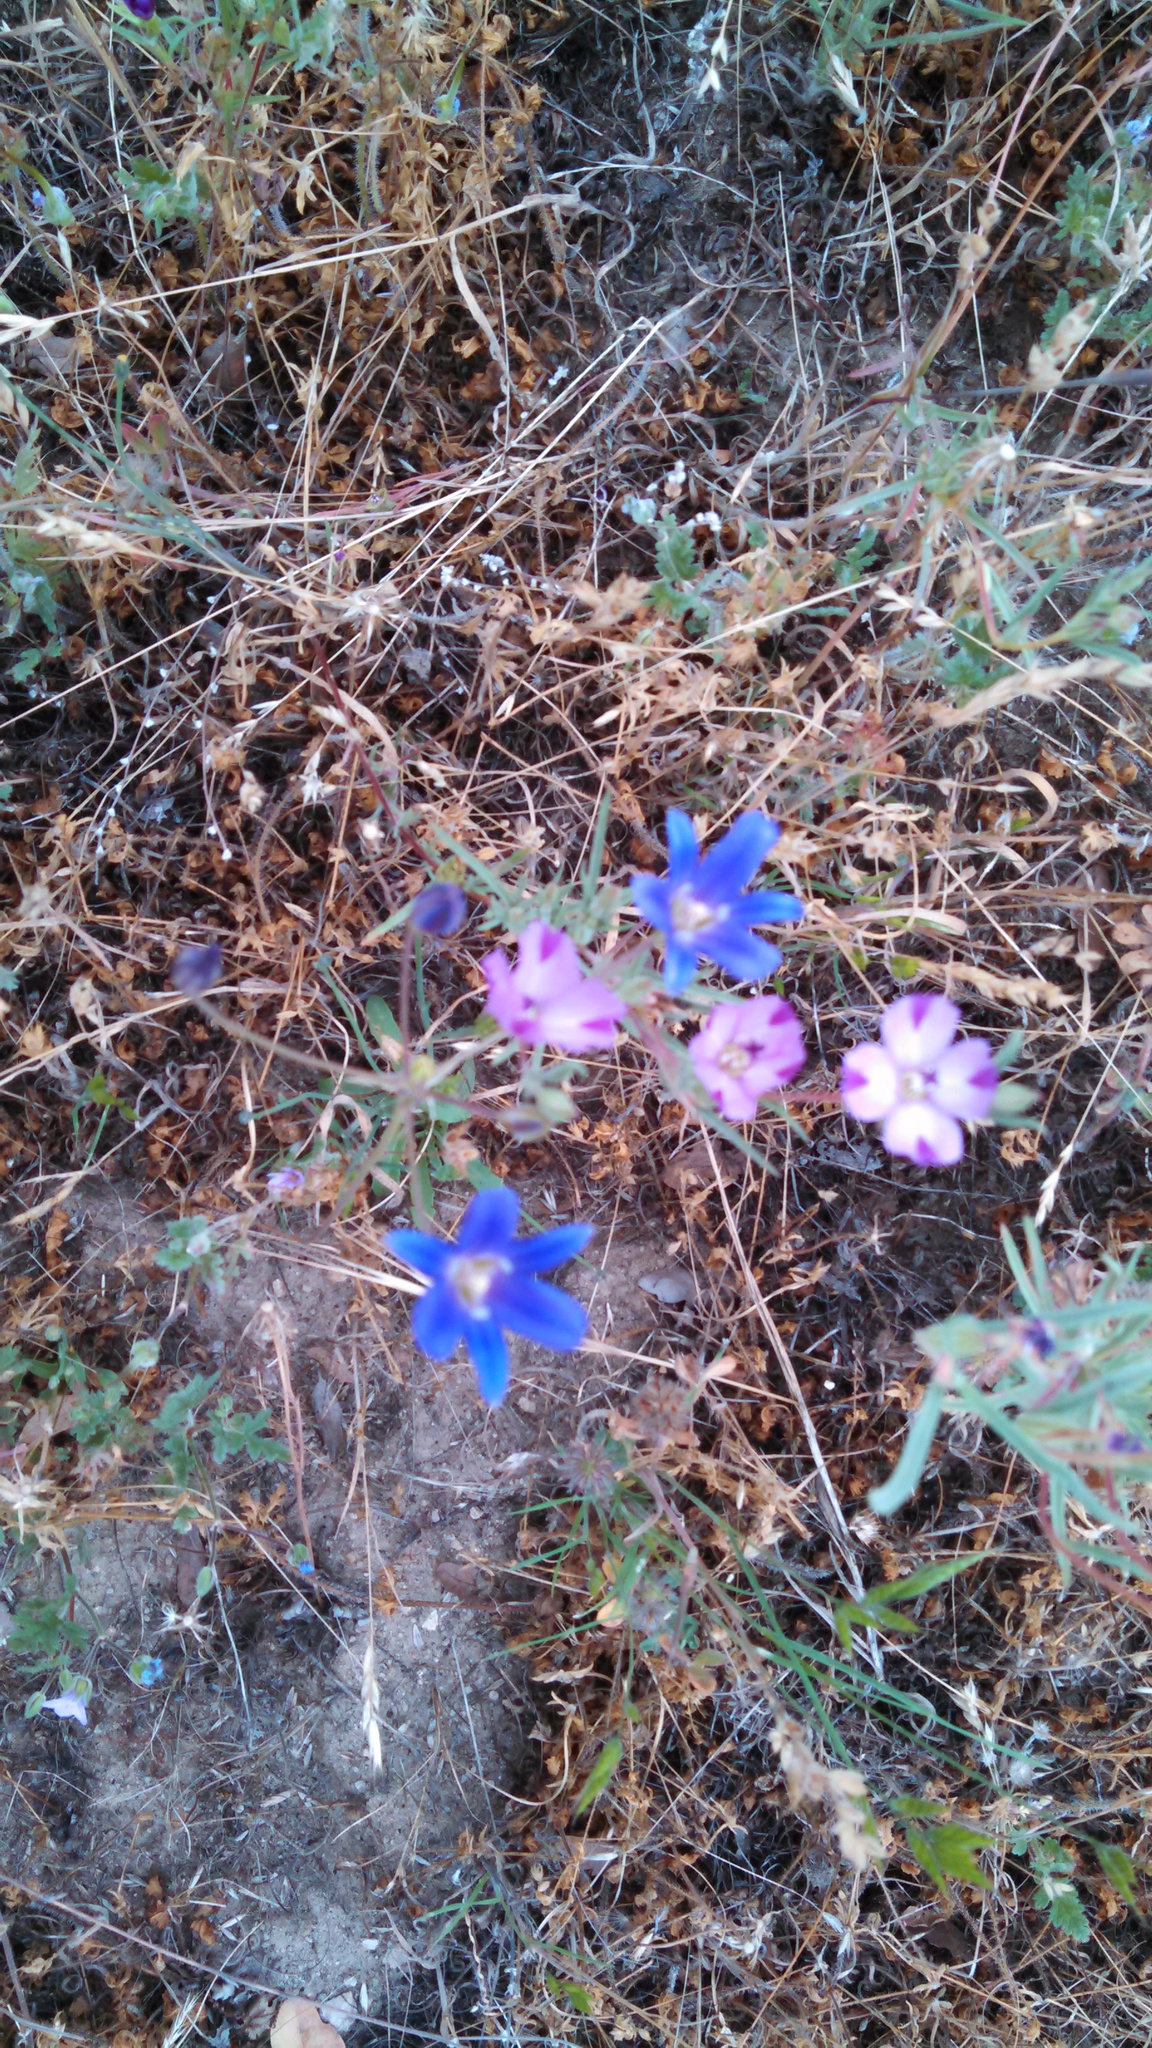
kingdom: Plantae
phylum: Tracheophyta
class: Magnoliopsida
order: Myrtales
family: Onagraceae
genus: Clarkia
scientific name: Clarkia williamsonii
